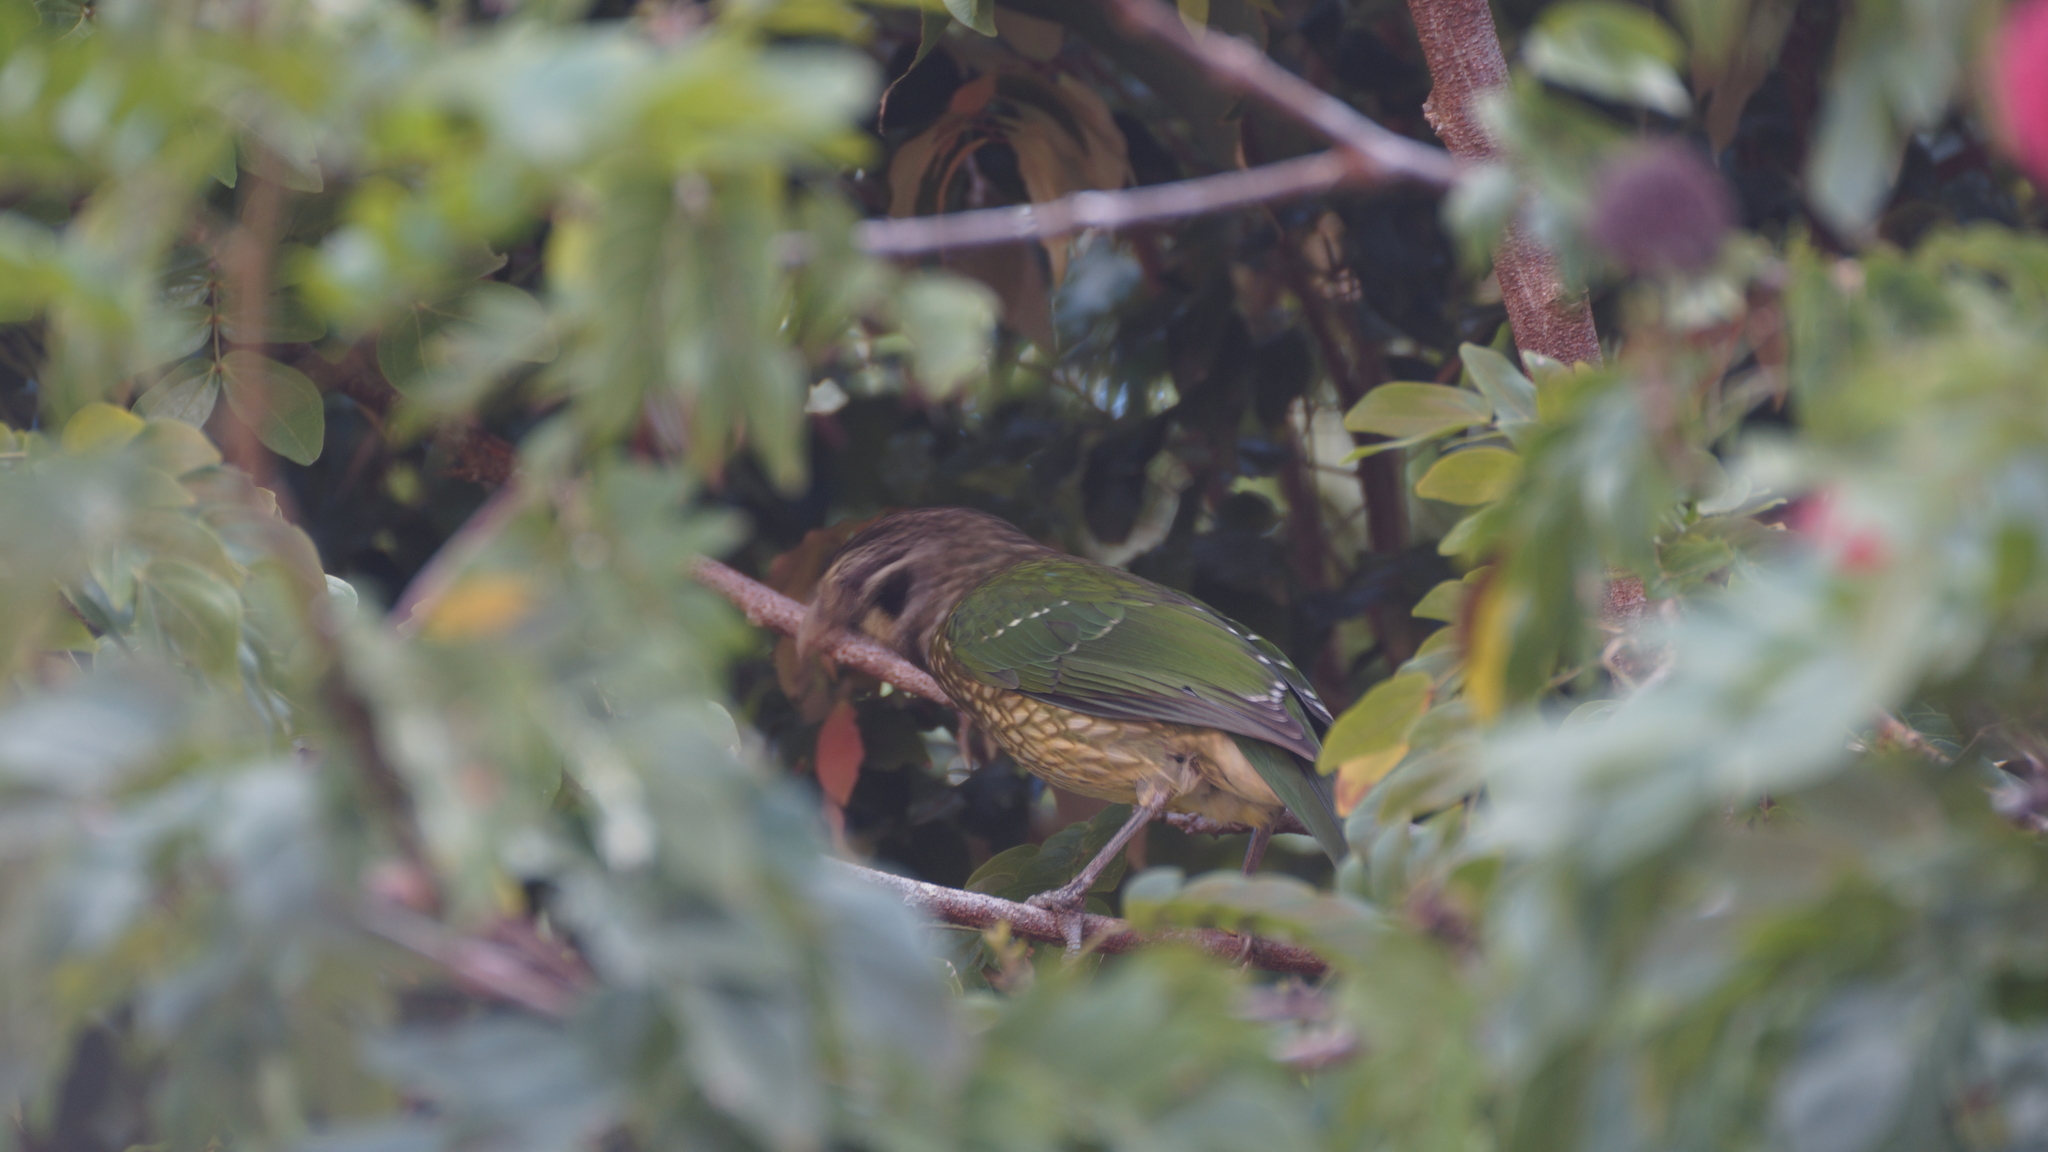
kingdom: Animalia
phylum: Chordata
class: Aves
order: Passeriformes
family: Ptilonorhynchidae
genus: Ailuroedus
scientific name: Ailuroedus maculosus
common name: Spotted catbird
